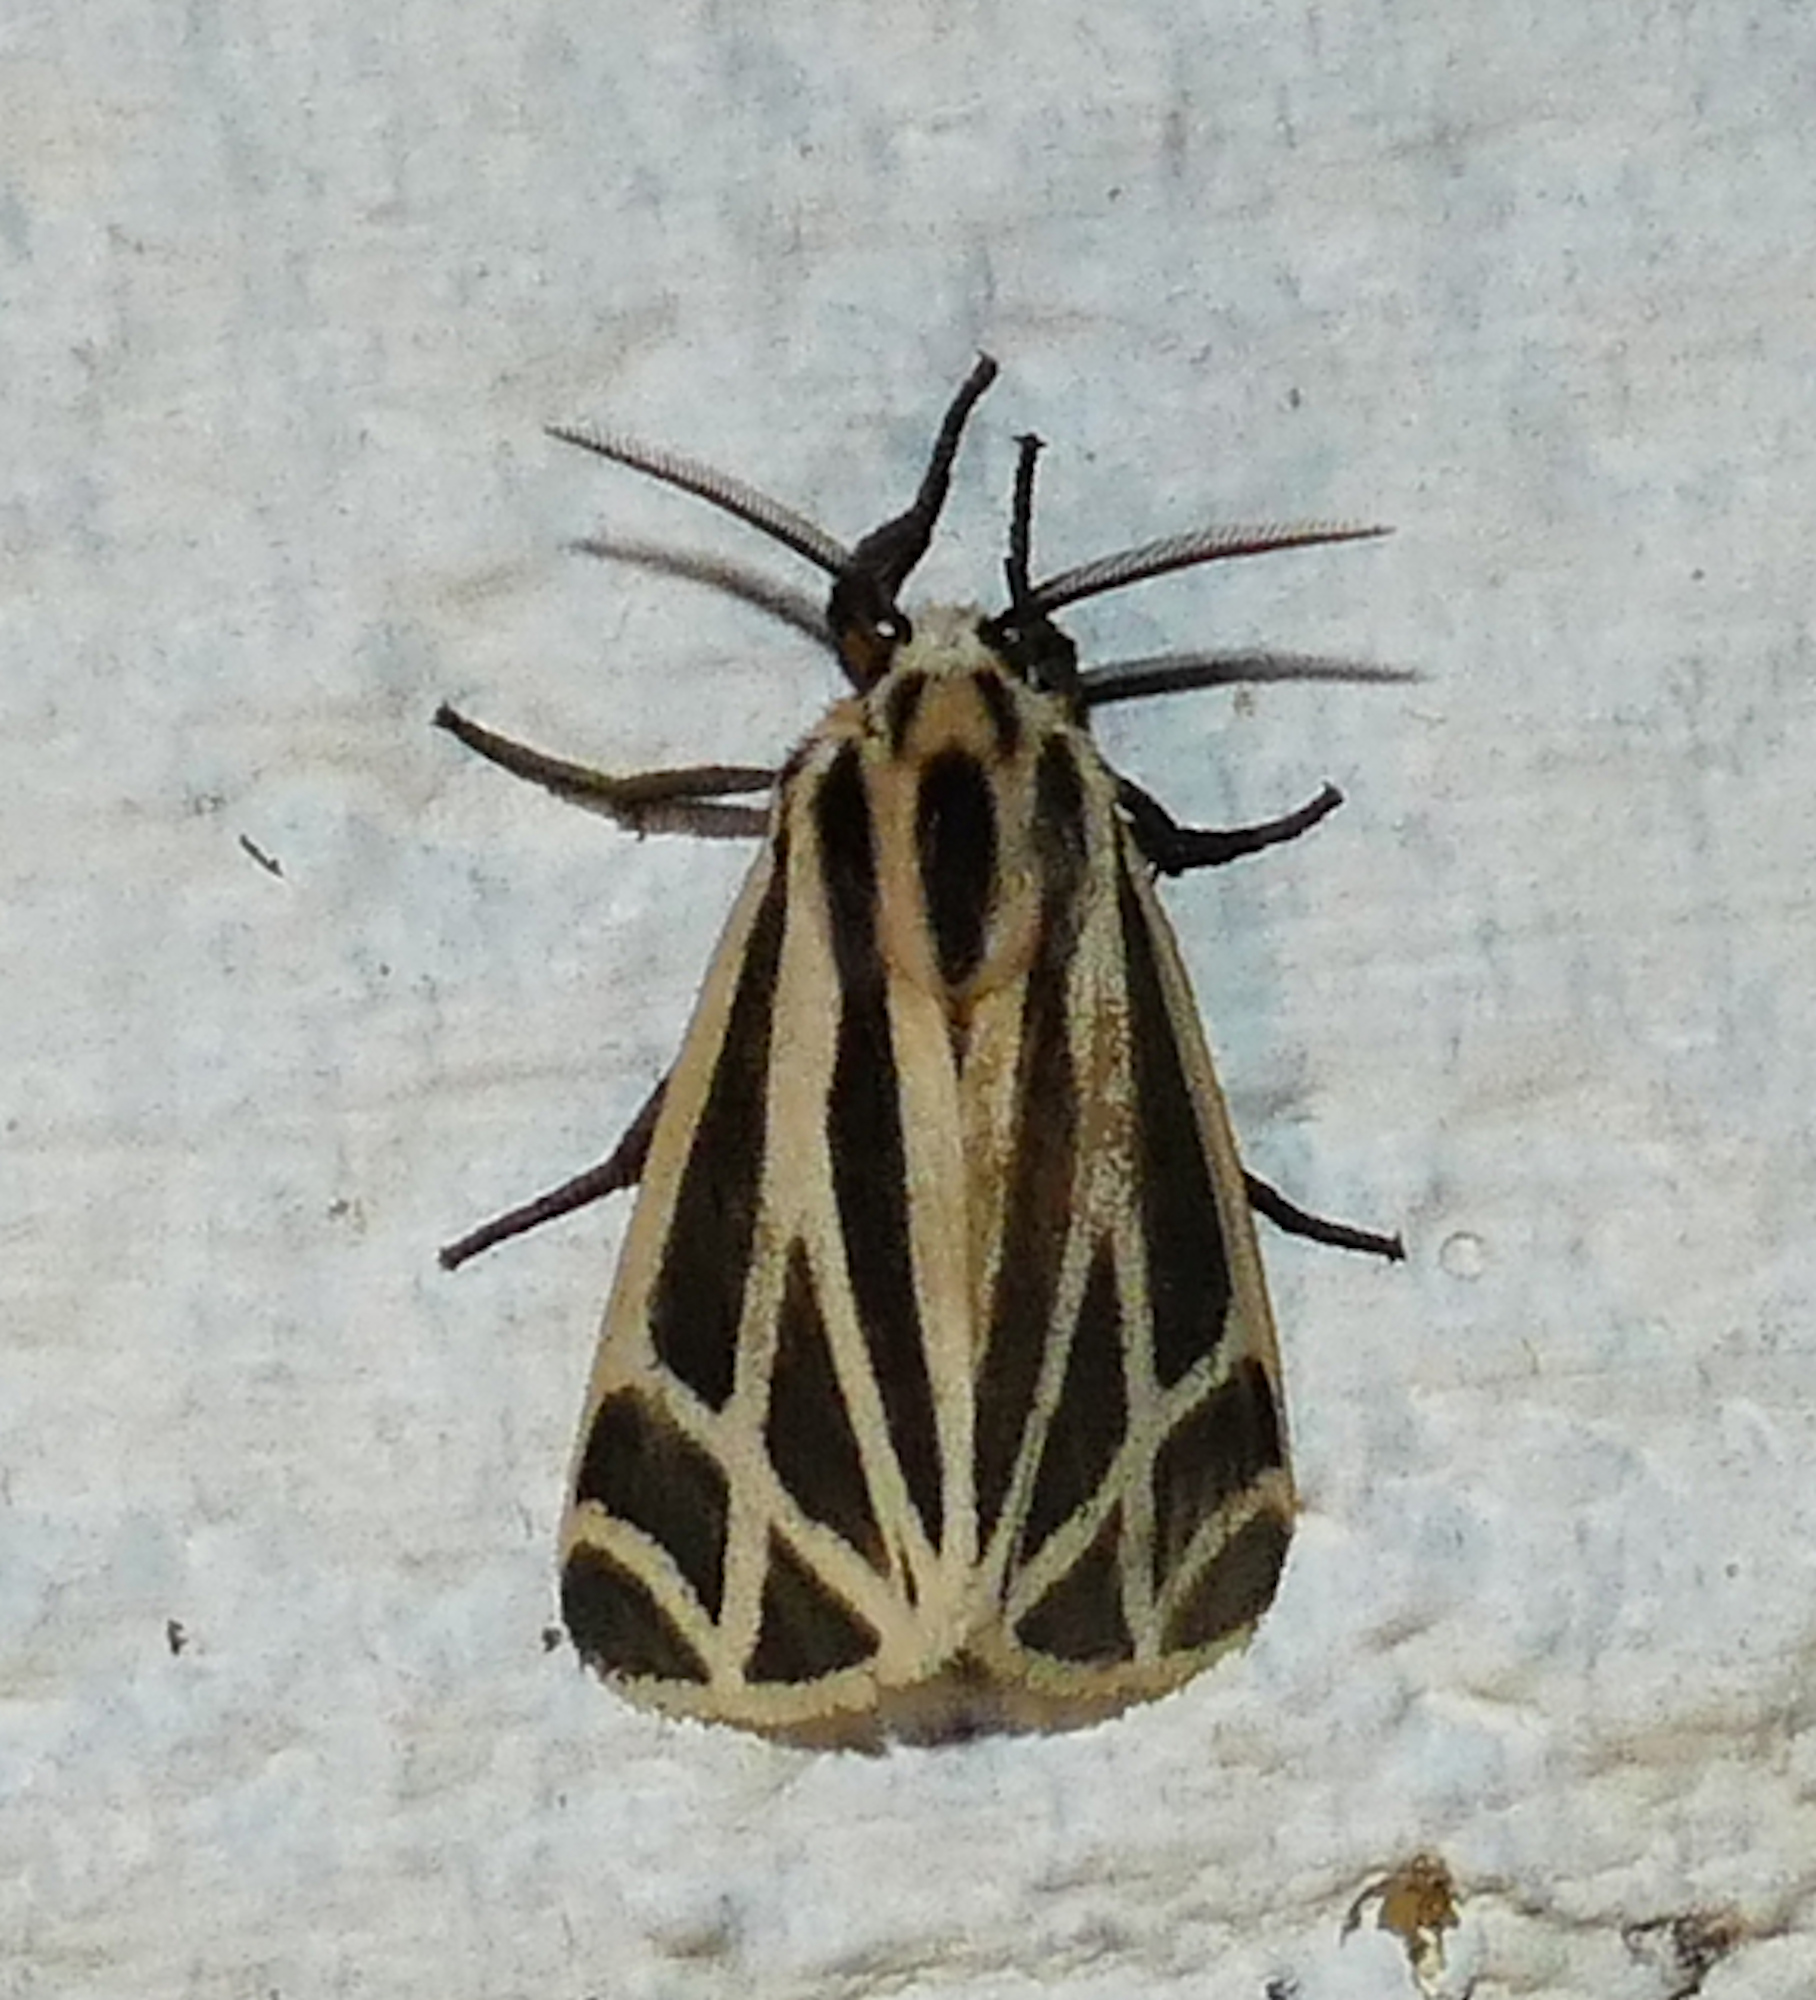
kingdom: Animalia
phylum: Arthropoda
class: Insecta
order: Lepidoptera
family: Erebidae
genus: Apantesis
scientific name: Apantesis phalerata
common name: Harnessed tiger moth
